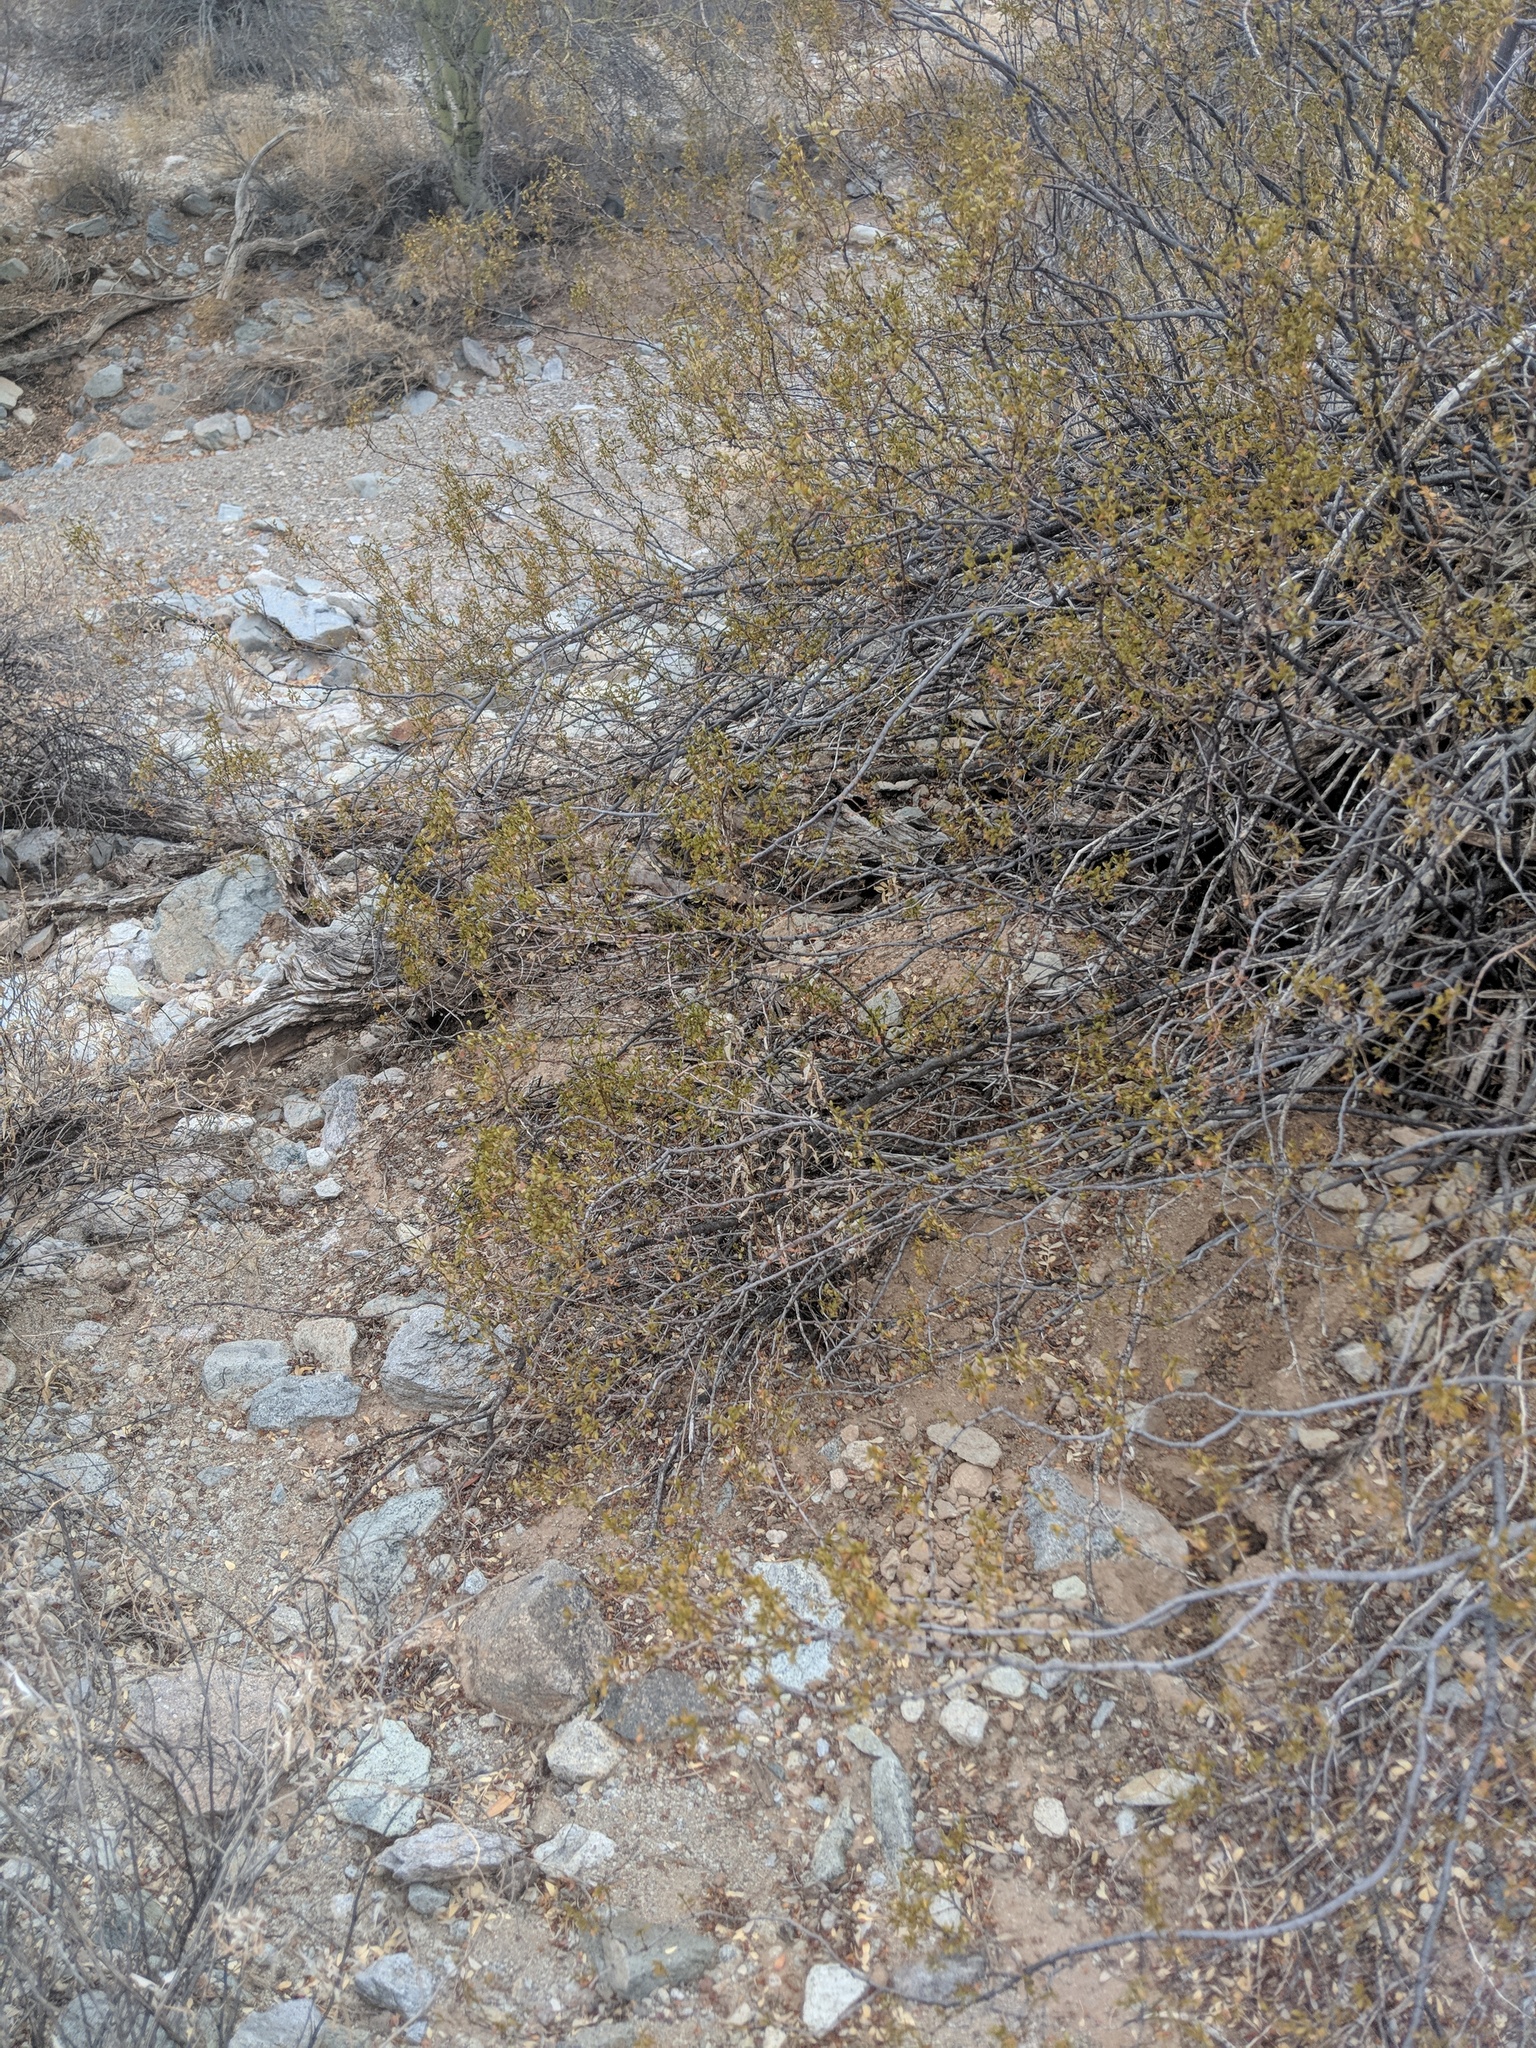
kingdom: Plantae
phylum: Tracheophyta
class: Magnoliopsida
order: Zygophyllales
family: Zygophyllaceae
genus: Larrea
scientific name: Larrea tridentata
